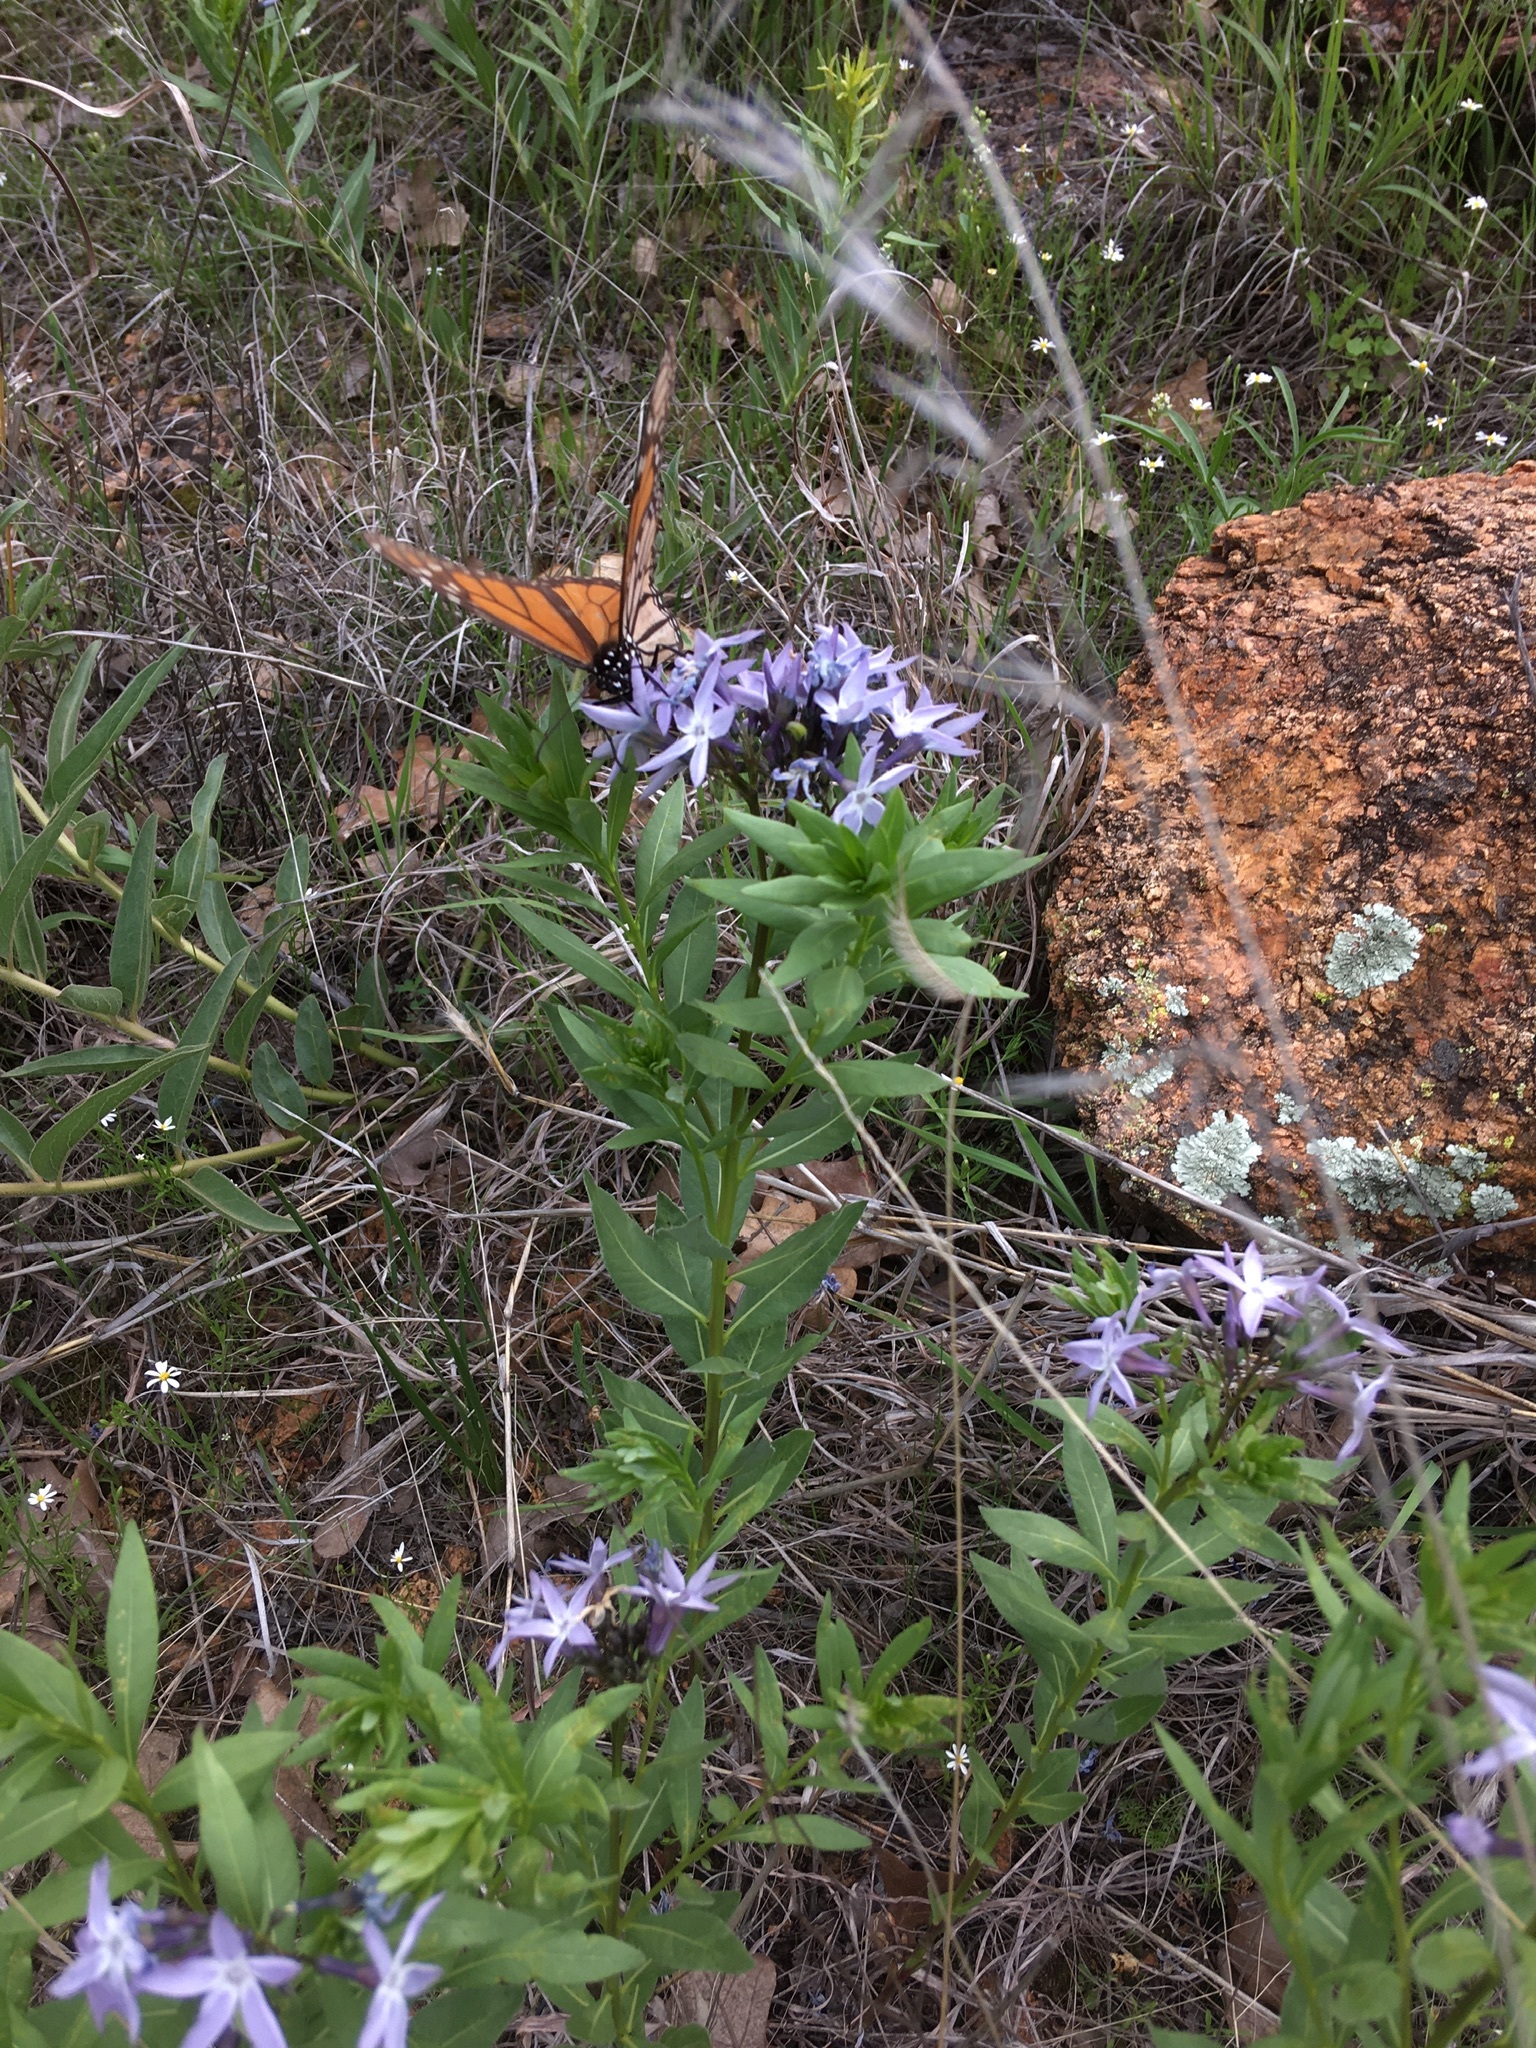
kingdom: Animalia
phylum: Arthropoda
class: Insecta
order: Lepidoptera
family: Nymphalidae
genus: Danaus
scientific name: Danaus plexippus
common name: Monarch
